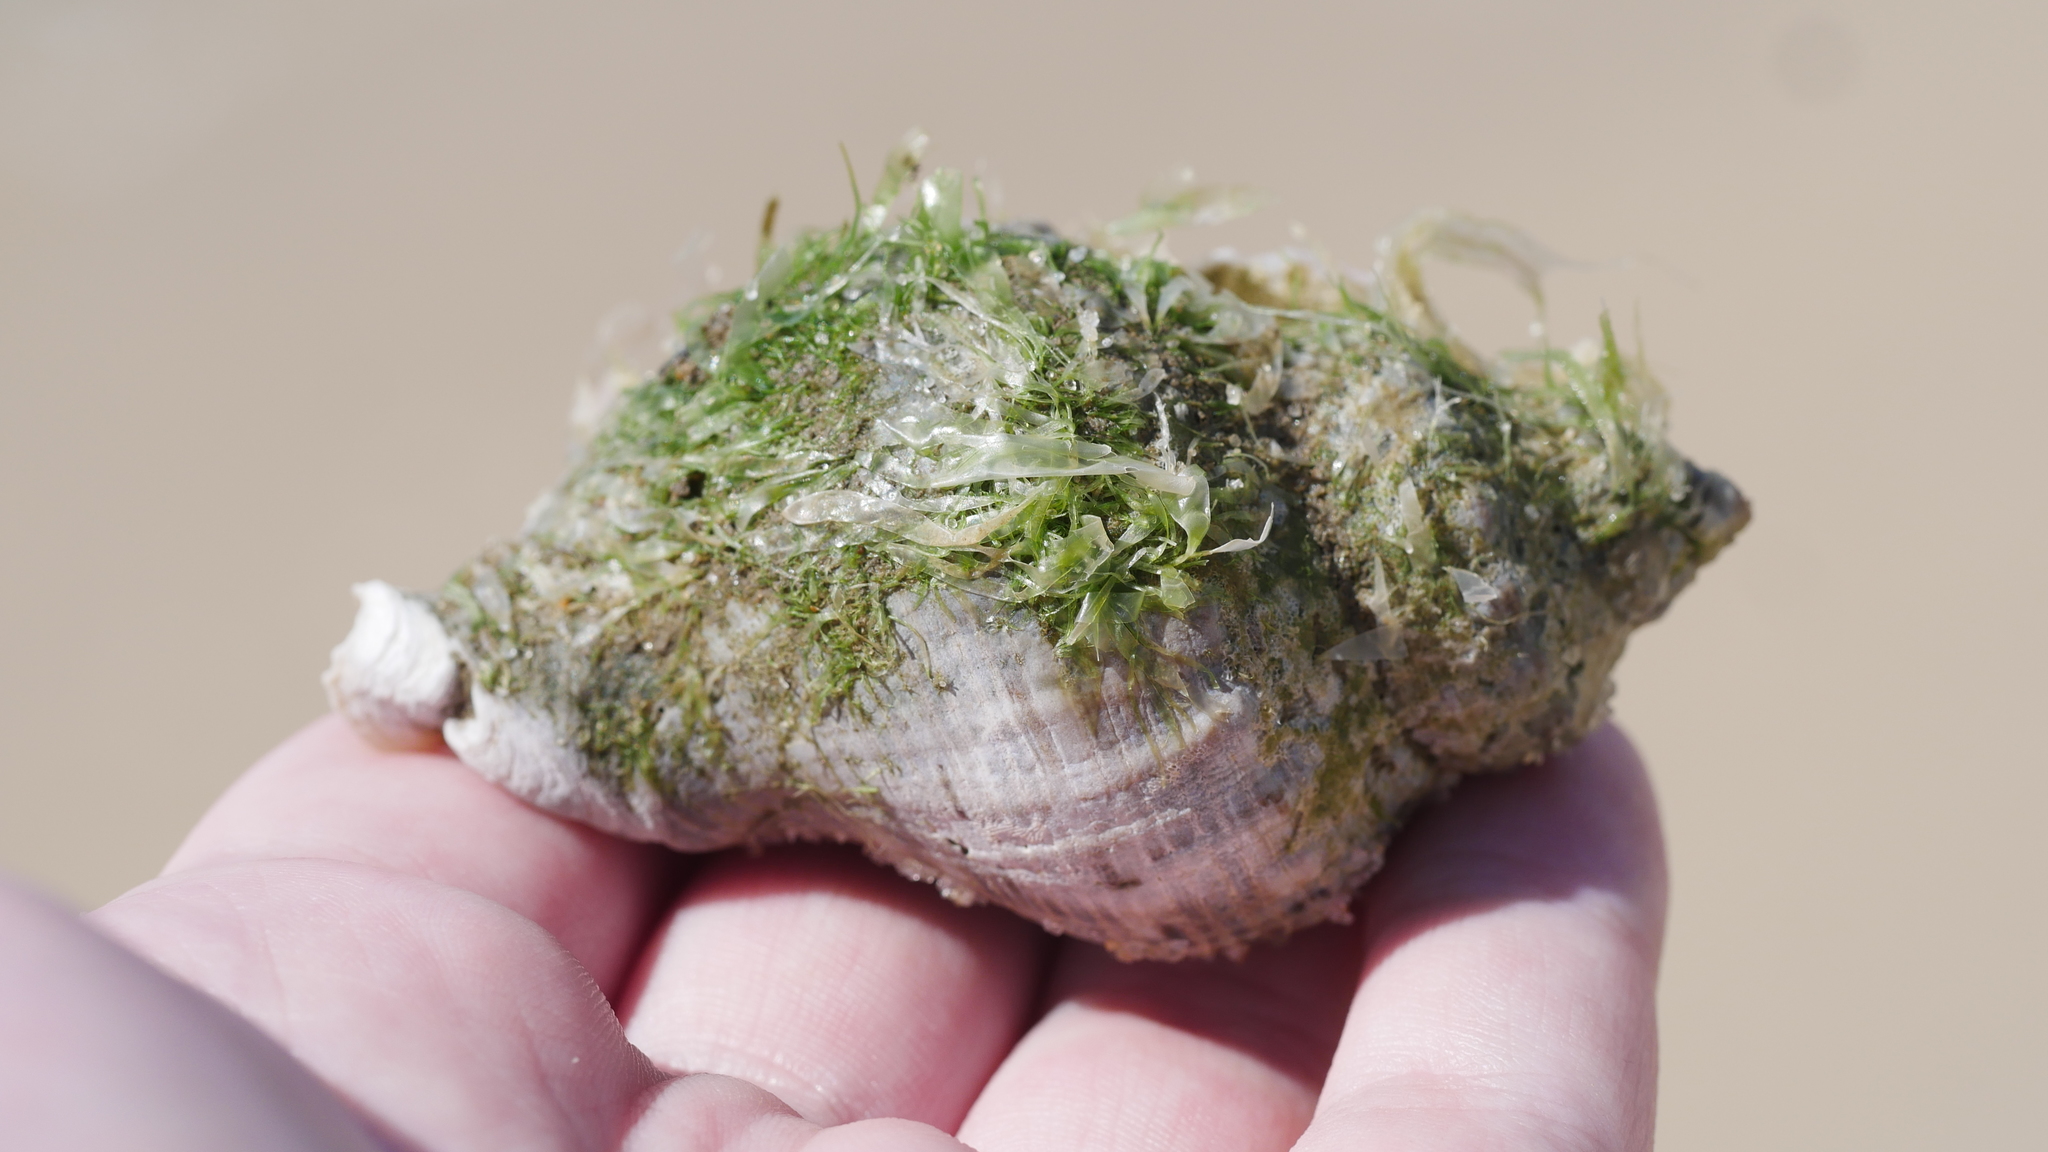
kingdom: Animalia
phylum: Mollusca
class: Gastropoda
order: Neogastropoda
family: Muricidae
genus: Stramonita
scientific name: Stramonita canaliculata
